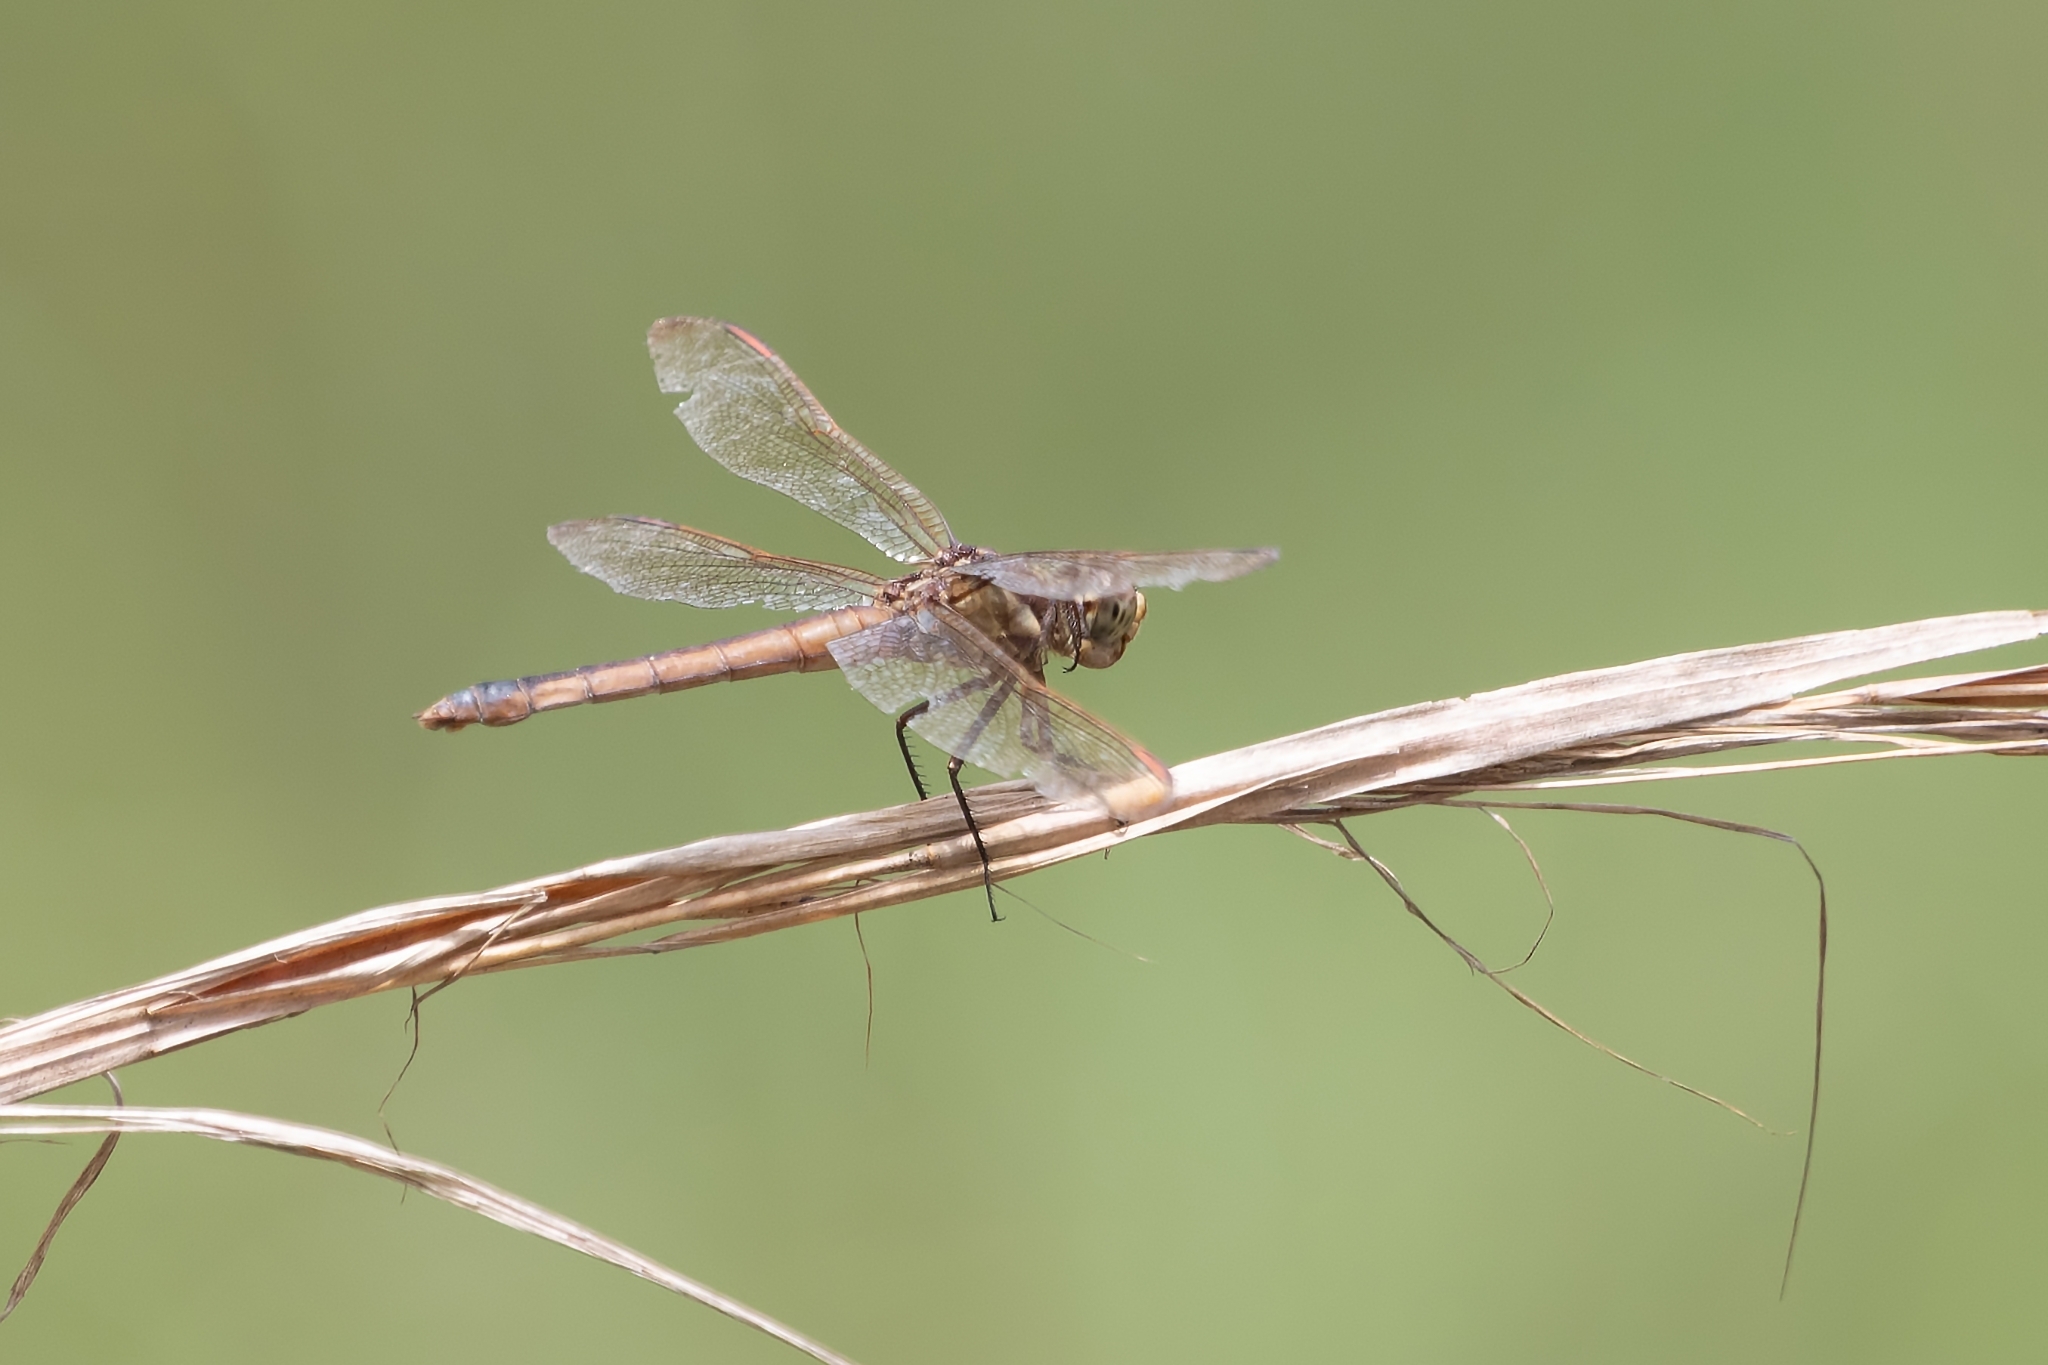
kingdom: Animalia
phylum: Arthropoda
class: Insecta
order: Odonata
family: Libellulidae
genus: Libellula
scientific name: Libellula auripennis
